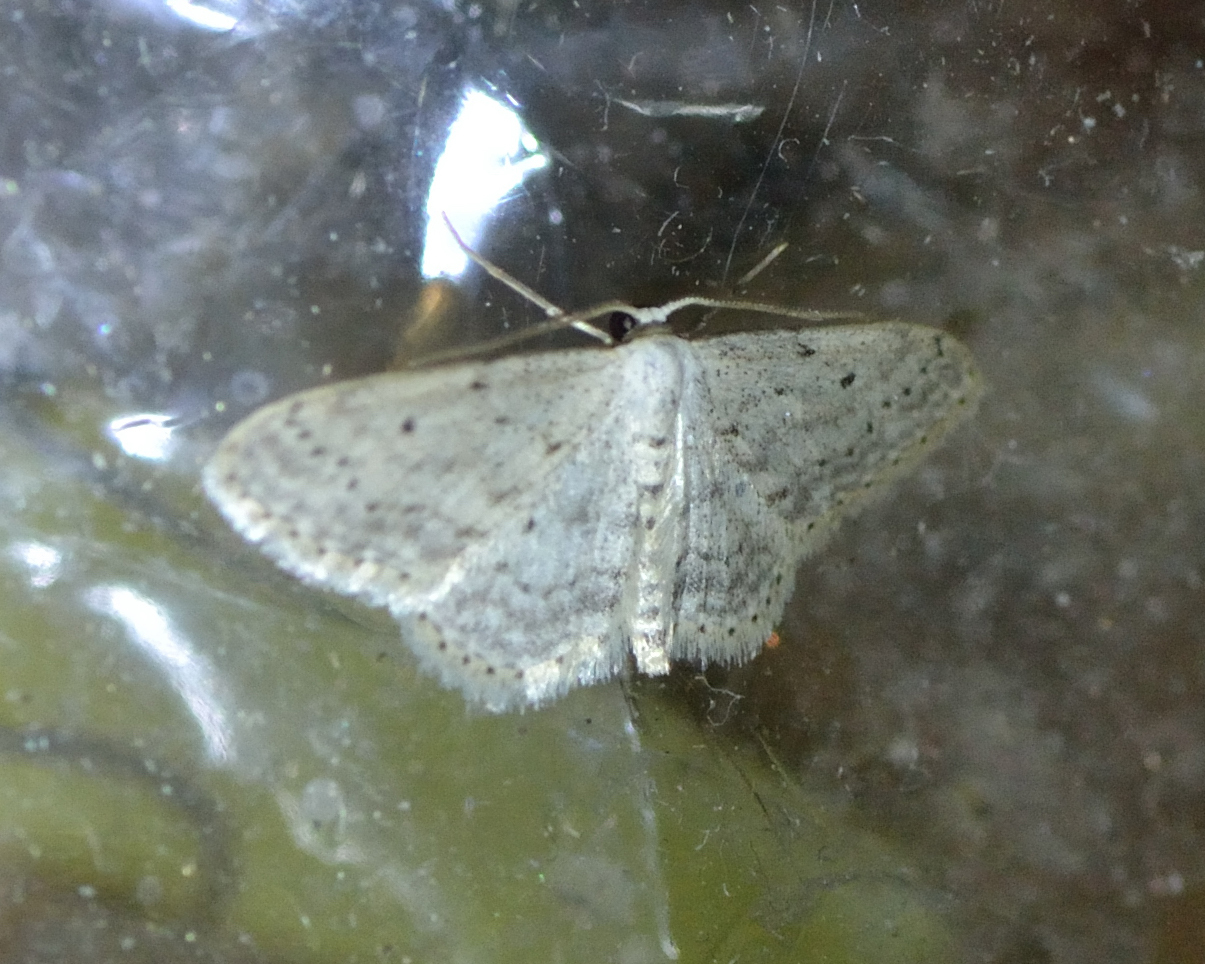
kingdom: Animalia
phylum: Arthropoda
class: Insecta
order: Lepidoptera
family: Geometridae
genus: Idaea
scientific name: Idaea seriata
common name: Small dusty wave
